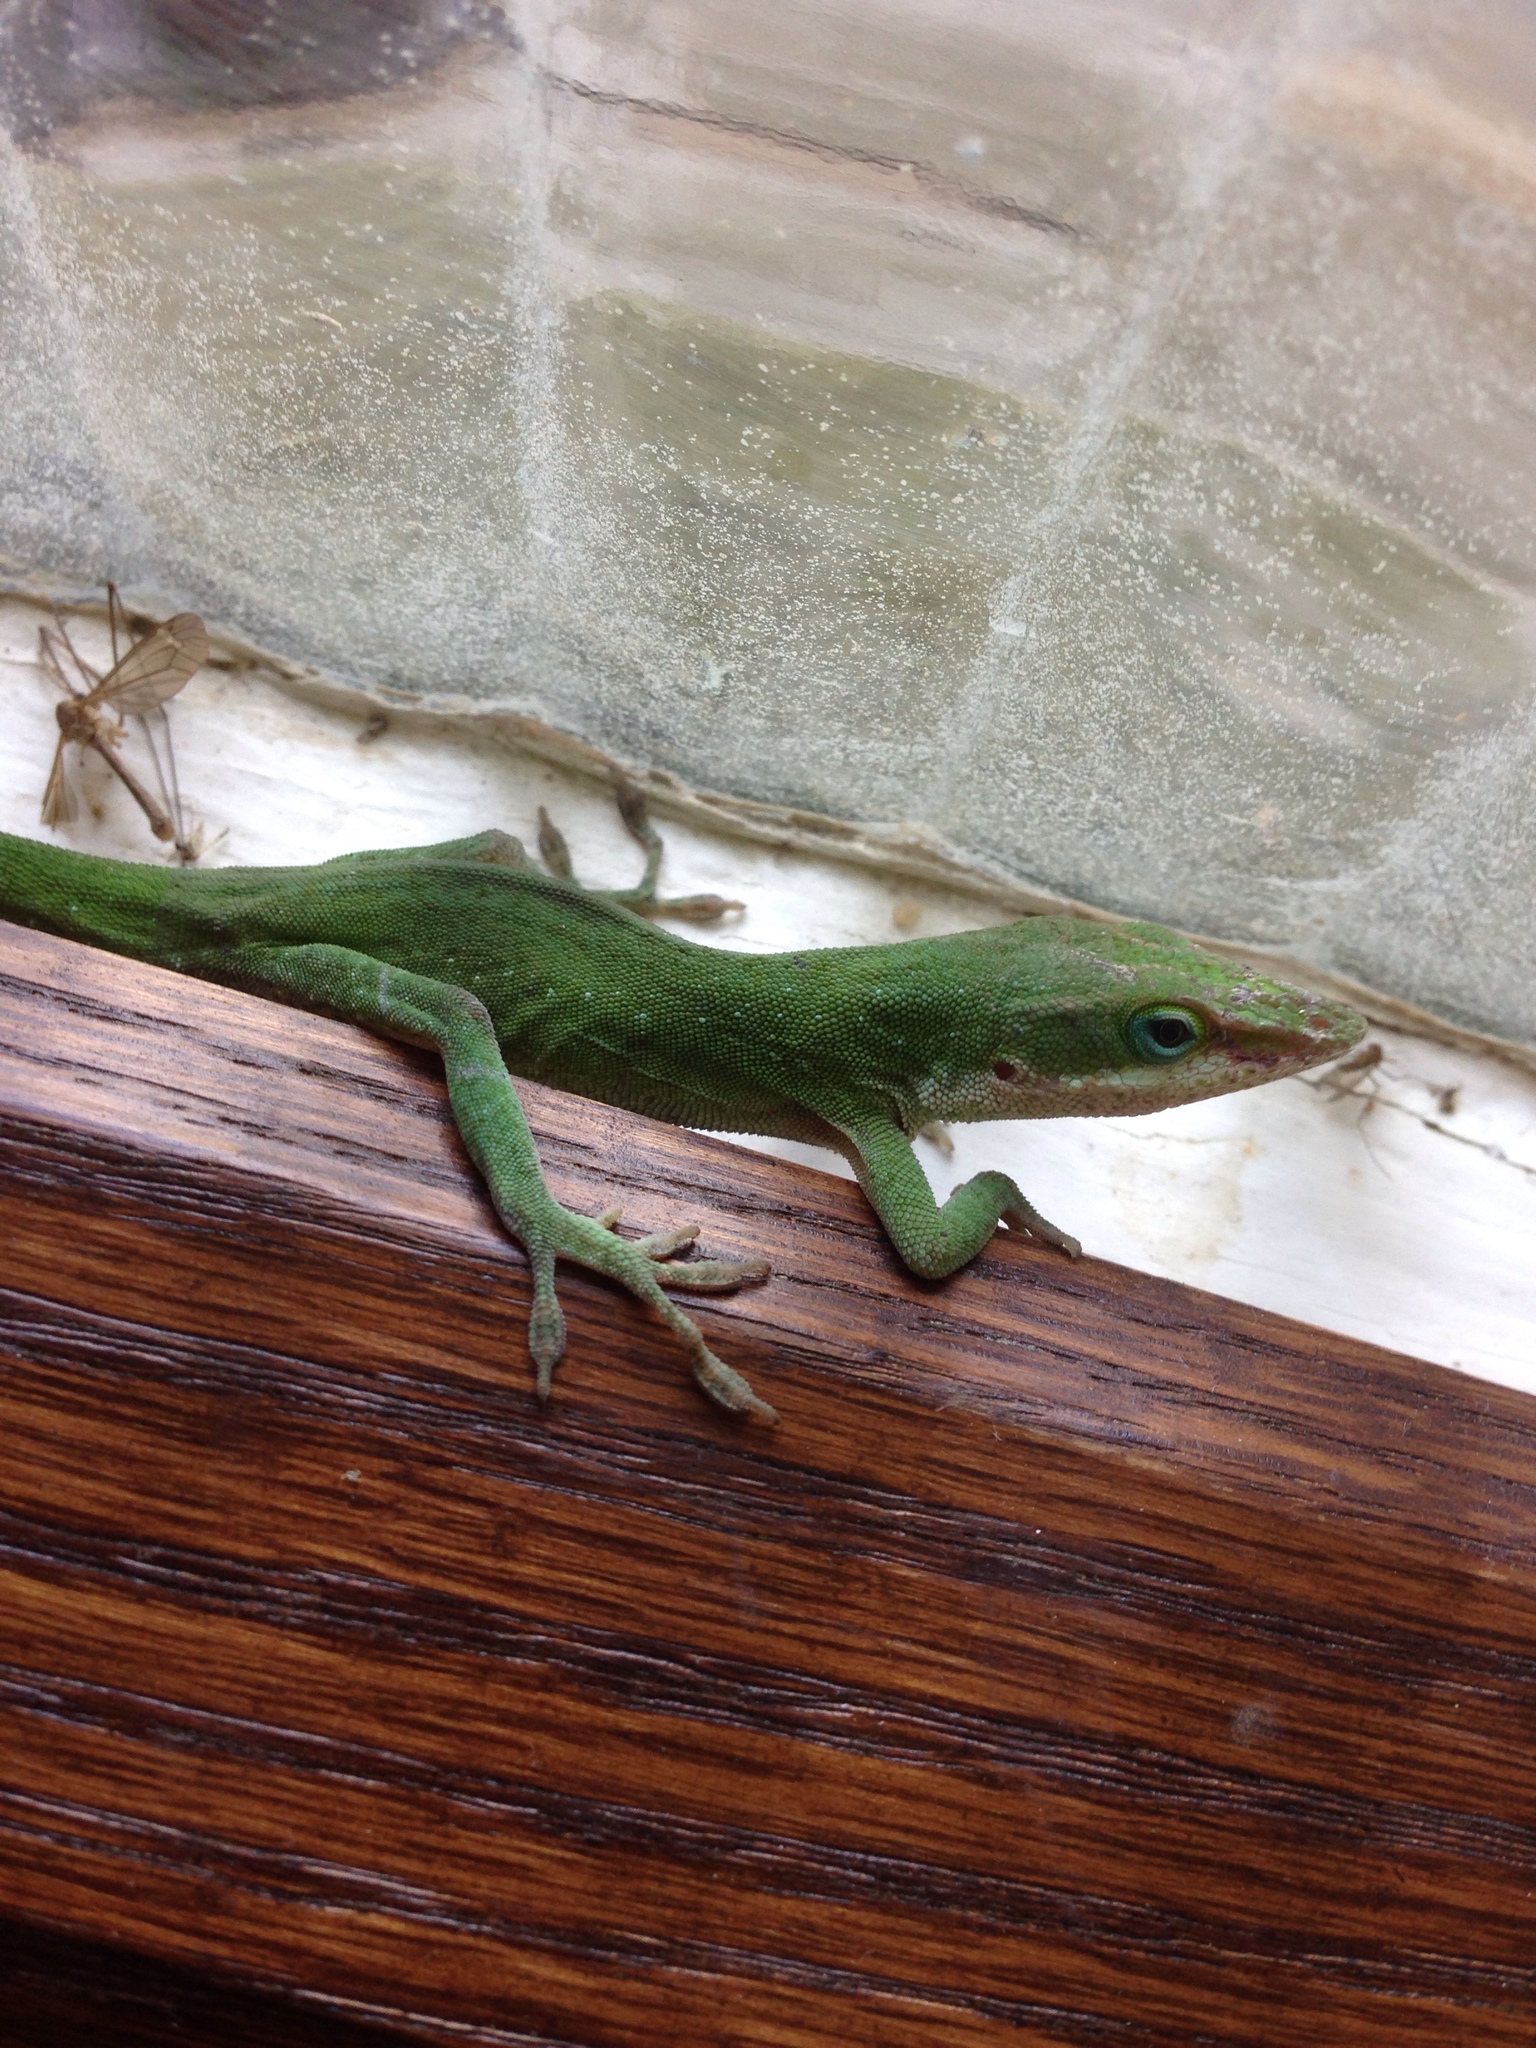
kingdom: Animalia
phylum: Chordata
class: Squamata
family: Dactyloidae
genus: Anolis
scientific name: Anolis carolinensis
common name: Green anole
